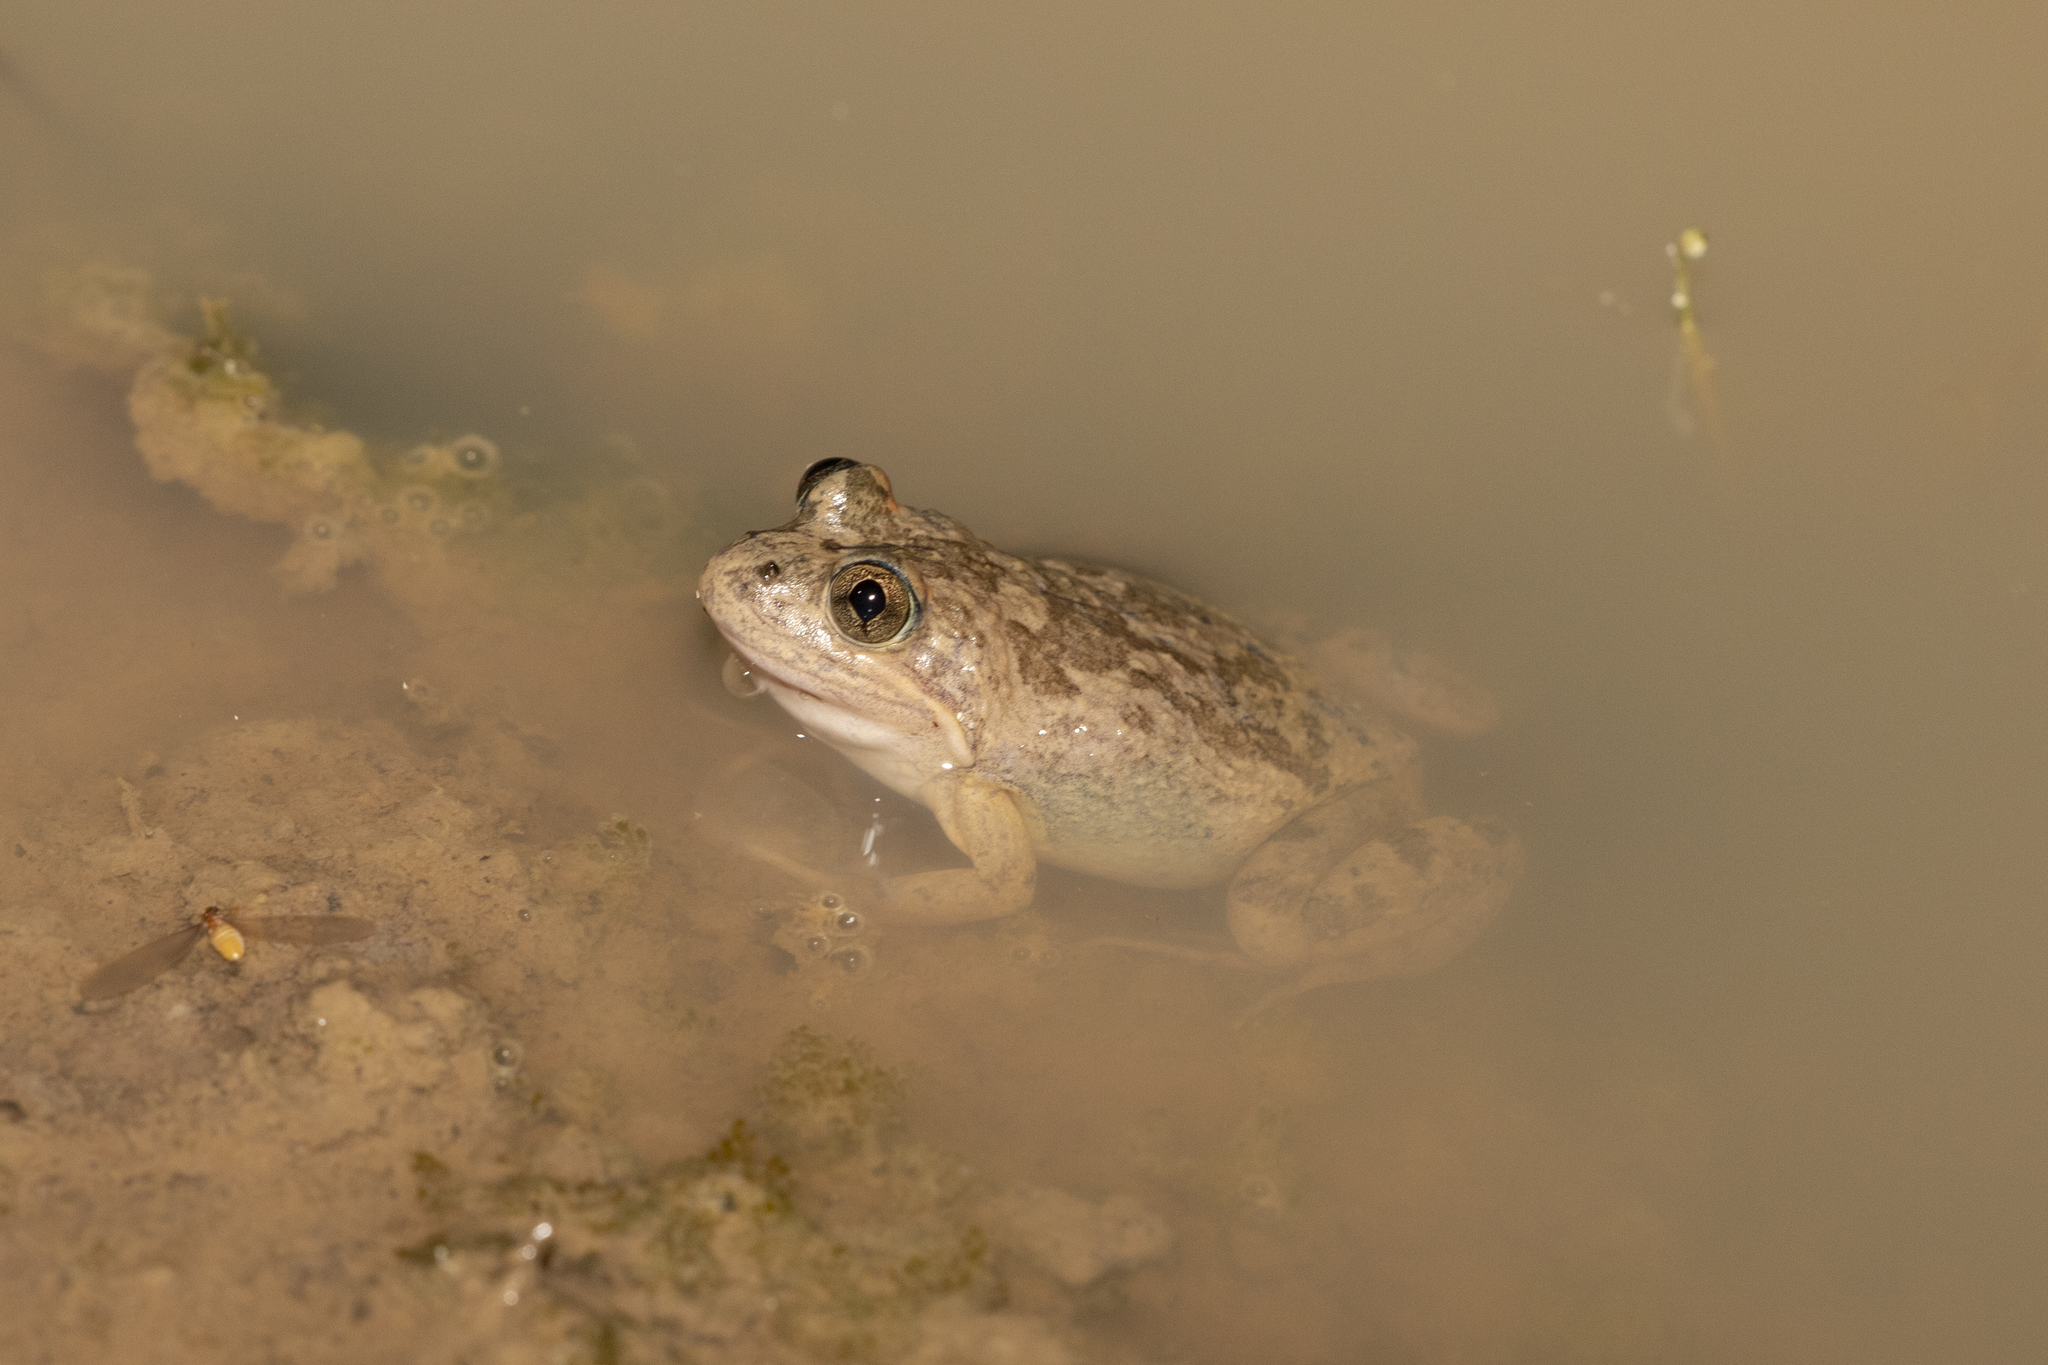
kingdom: Animalia
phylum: Chordata
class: Amphibia
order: Anura
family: Limnodynastidae
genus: Limnodynastes
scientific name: Limnodynastes fletcheri
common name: Barking frog
